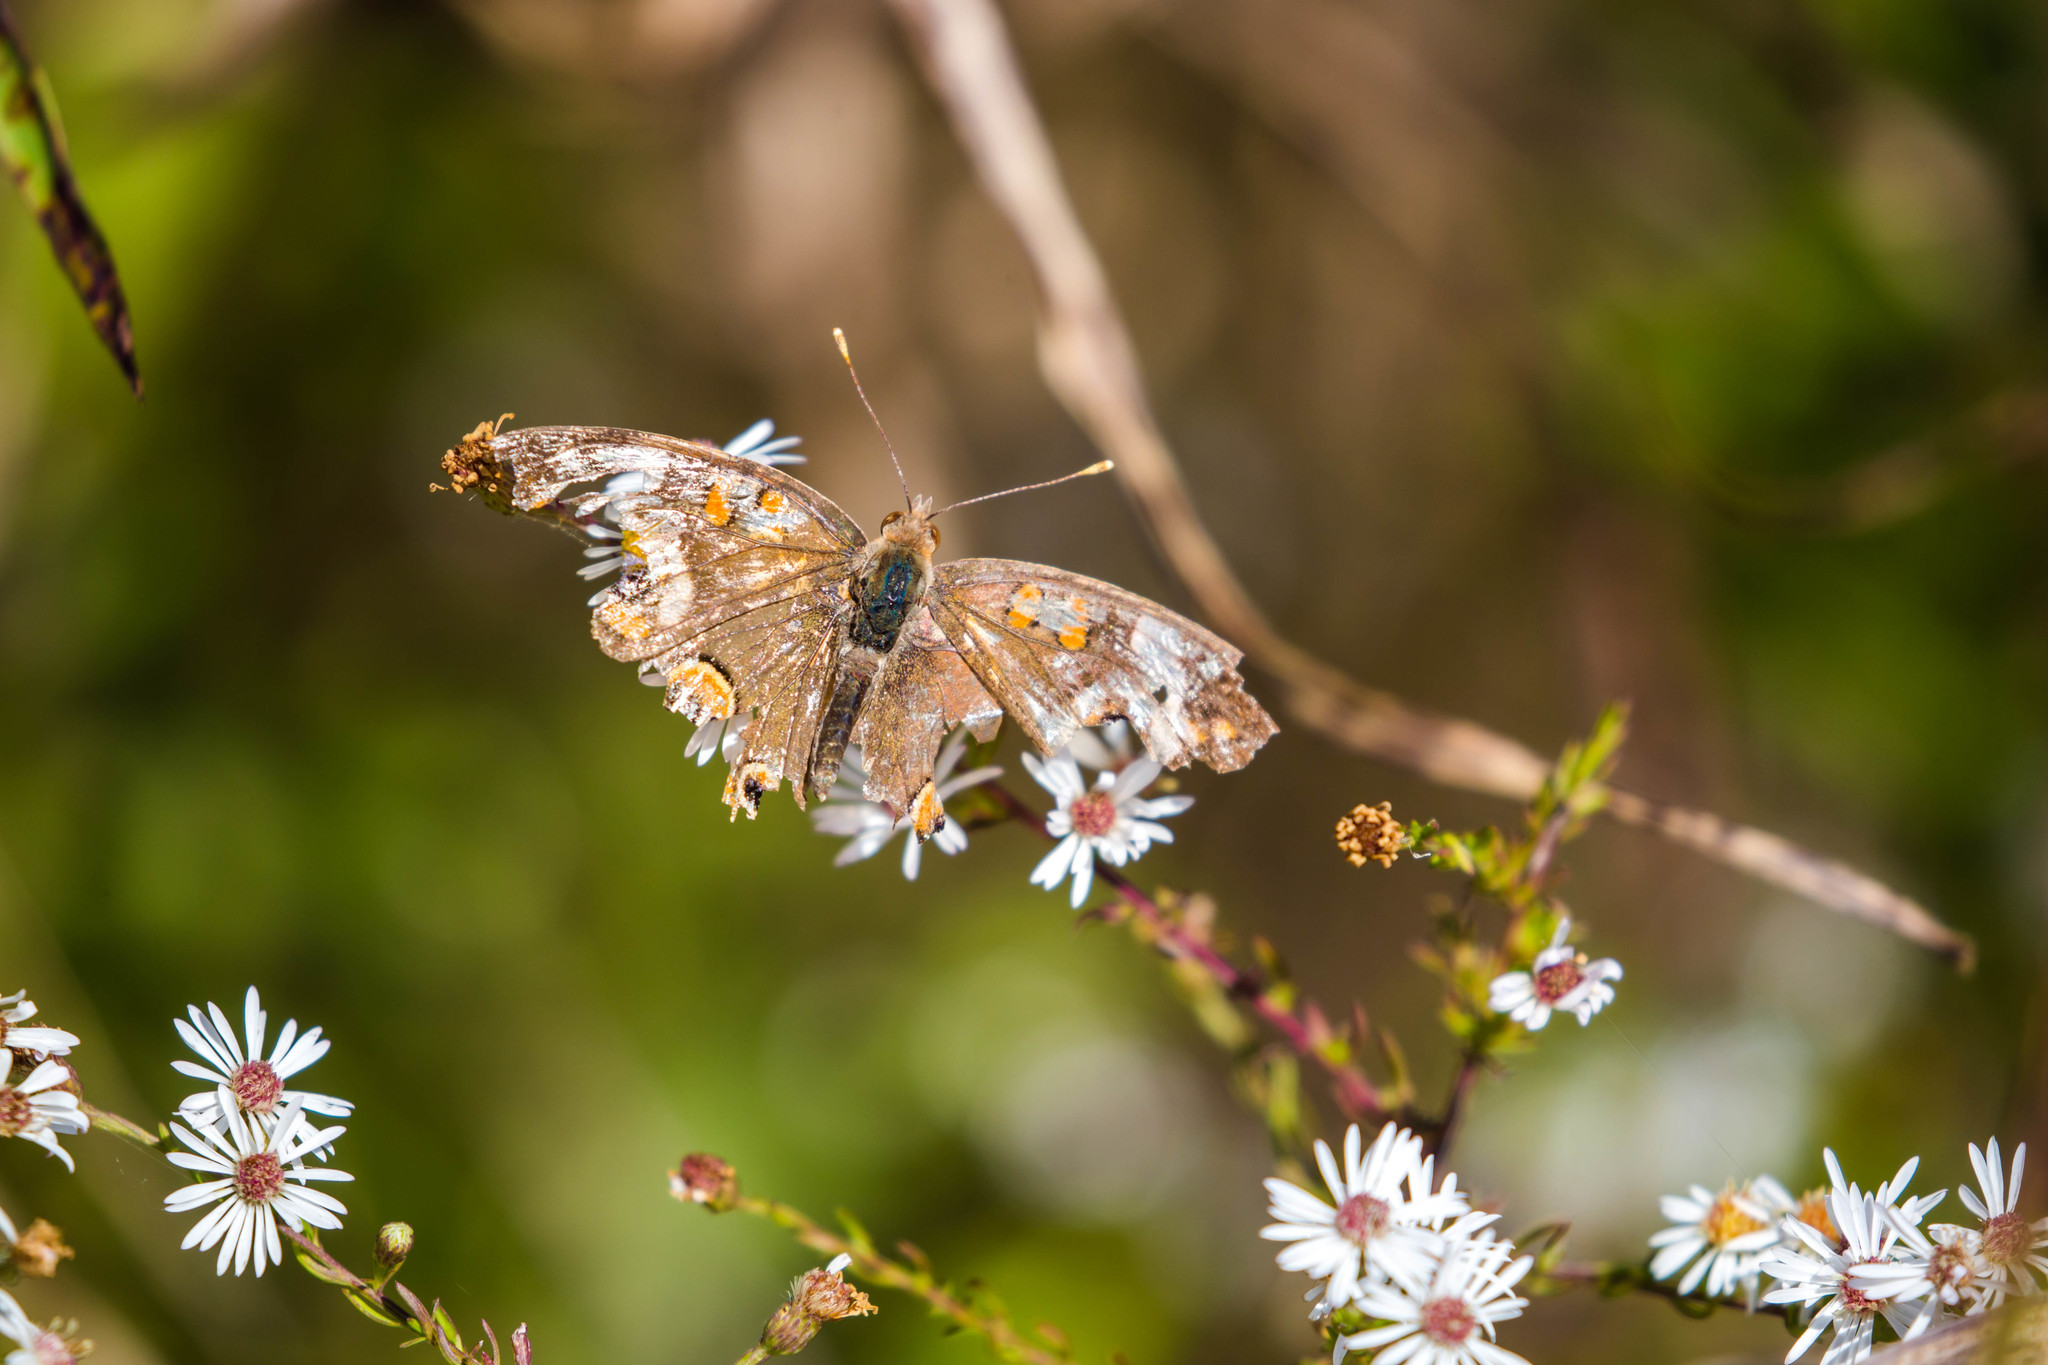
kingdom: Animalia
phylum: Arthropoda
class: Insecta
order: Lepidoptera
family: Nymphalidae
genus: Junonia
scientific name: Junonia coenia
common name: Common buckeye
